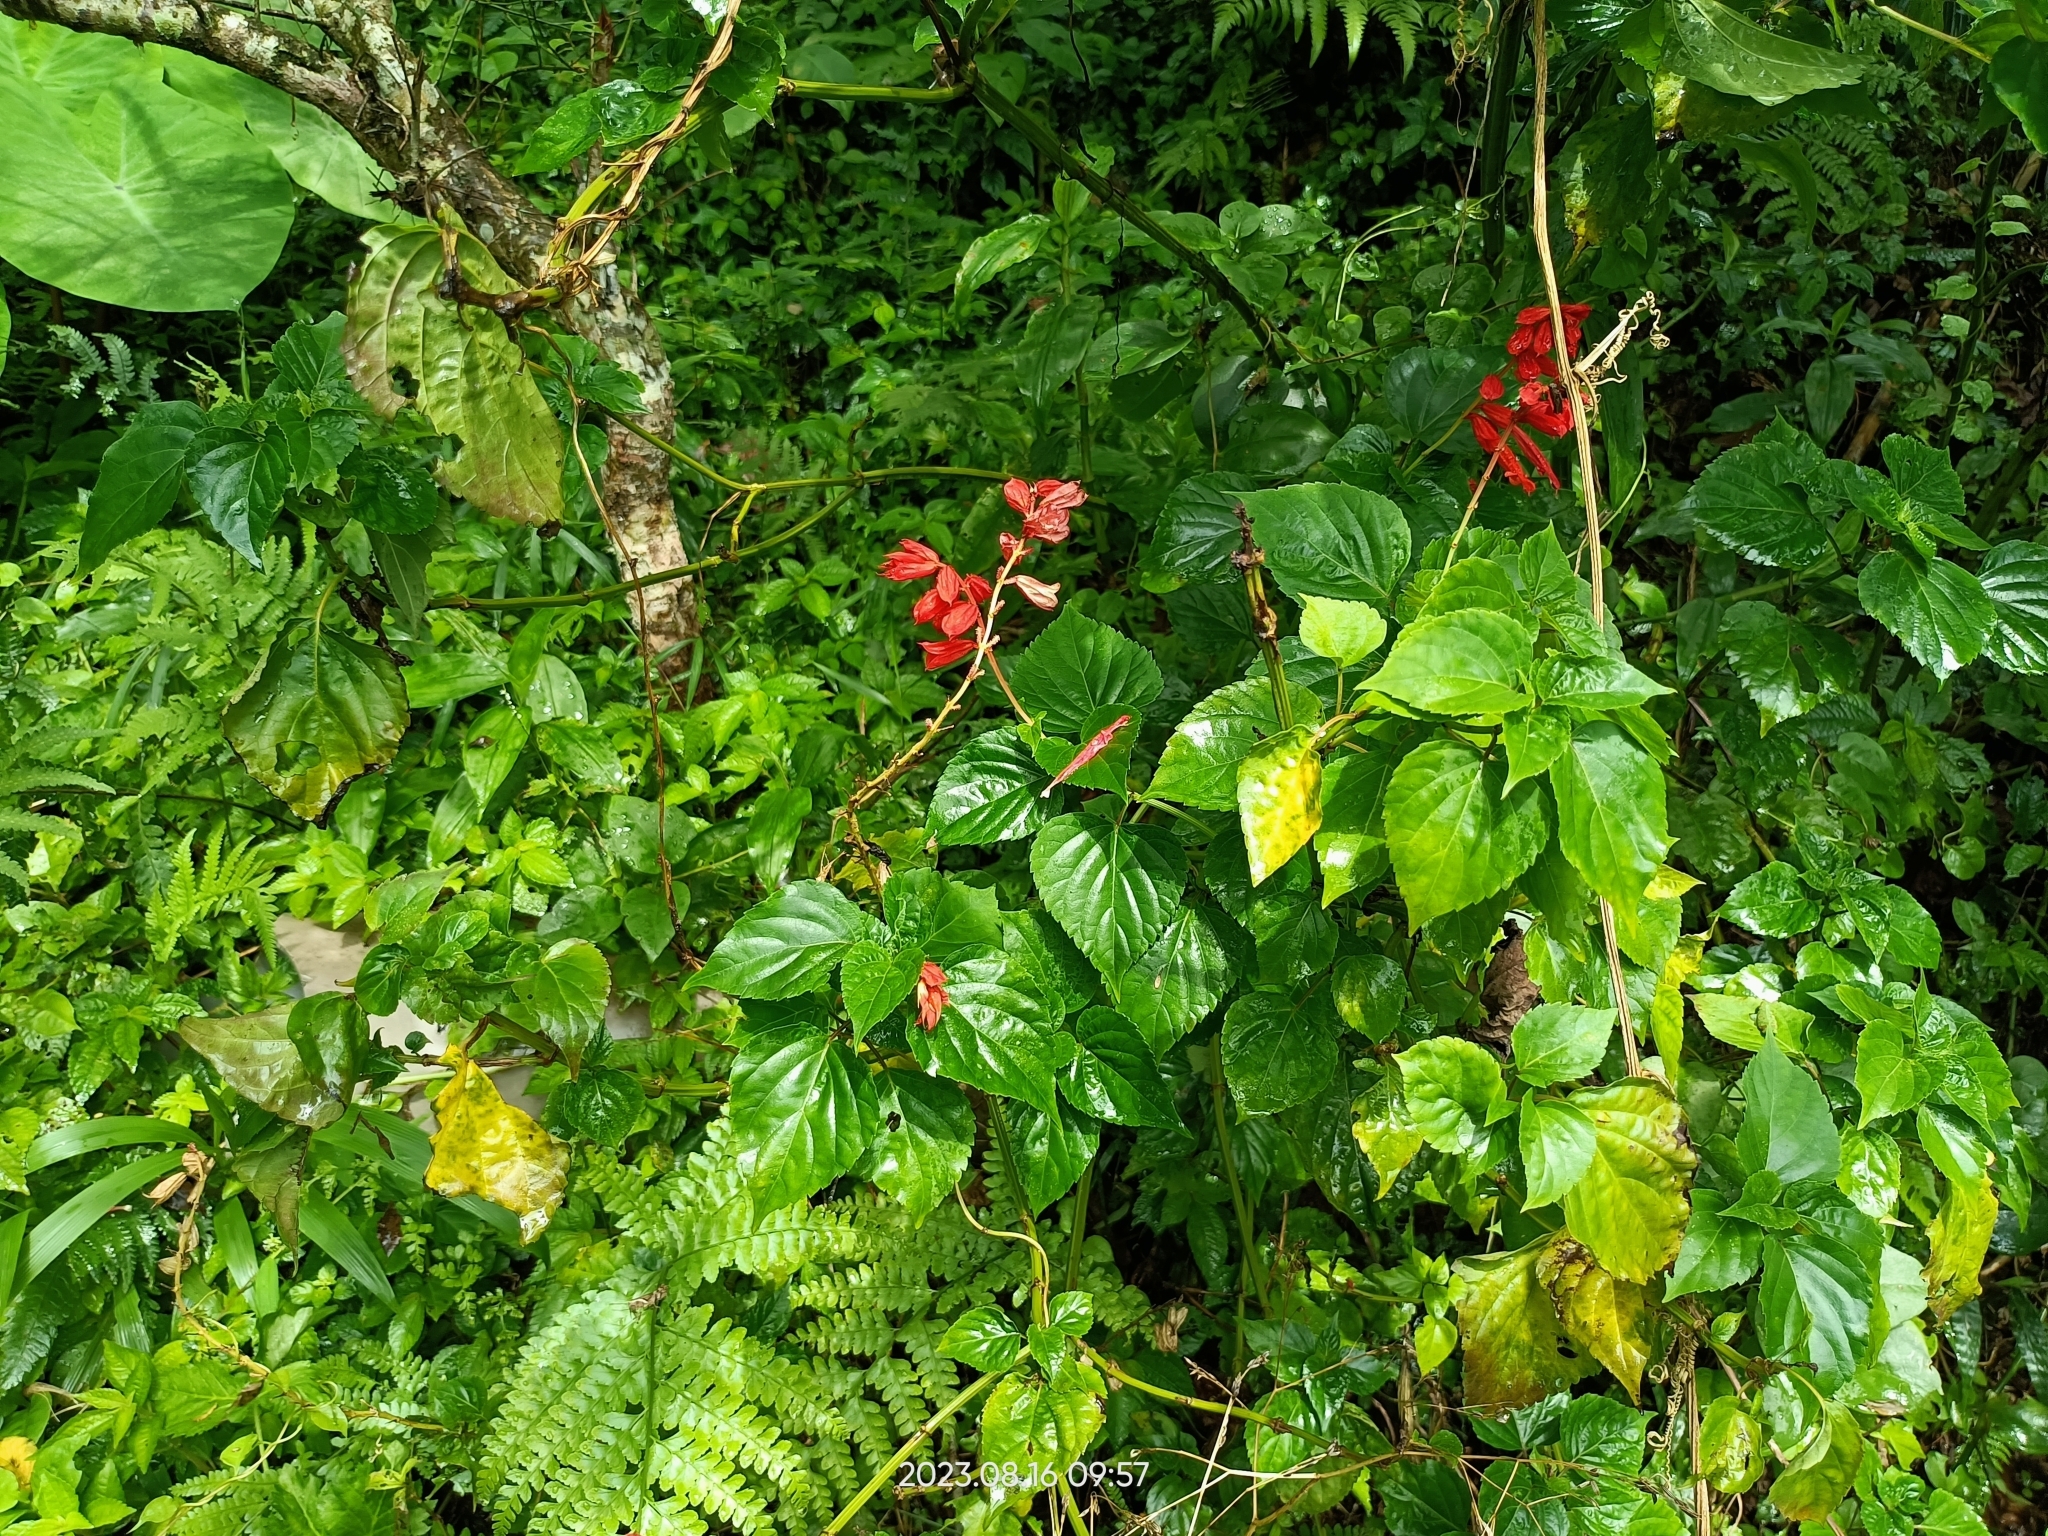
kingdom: Plantae
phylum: Tracheophyta
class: Magnoliopsida
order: Lamiales
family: Lamiaceae
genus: Salvia
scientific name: Salvia splendens
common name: Scarlet sage
